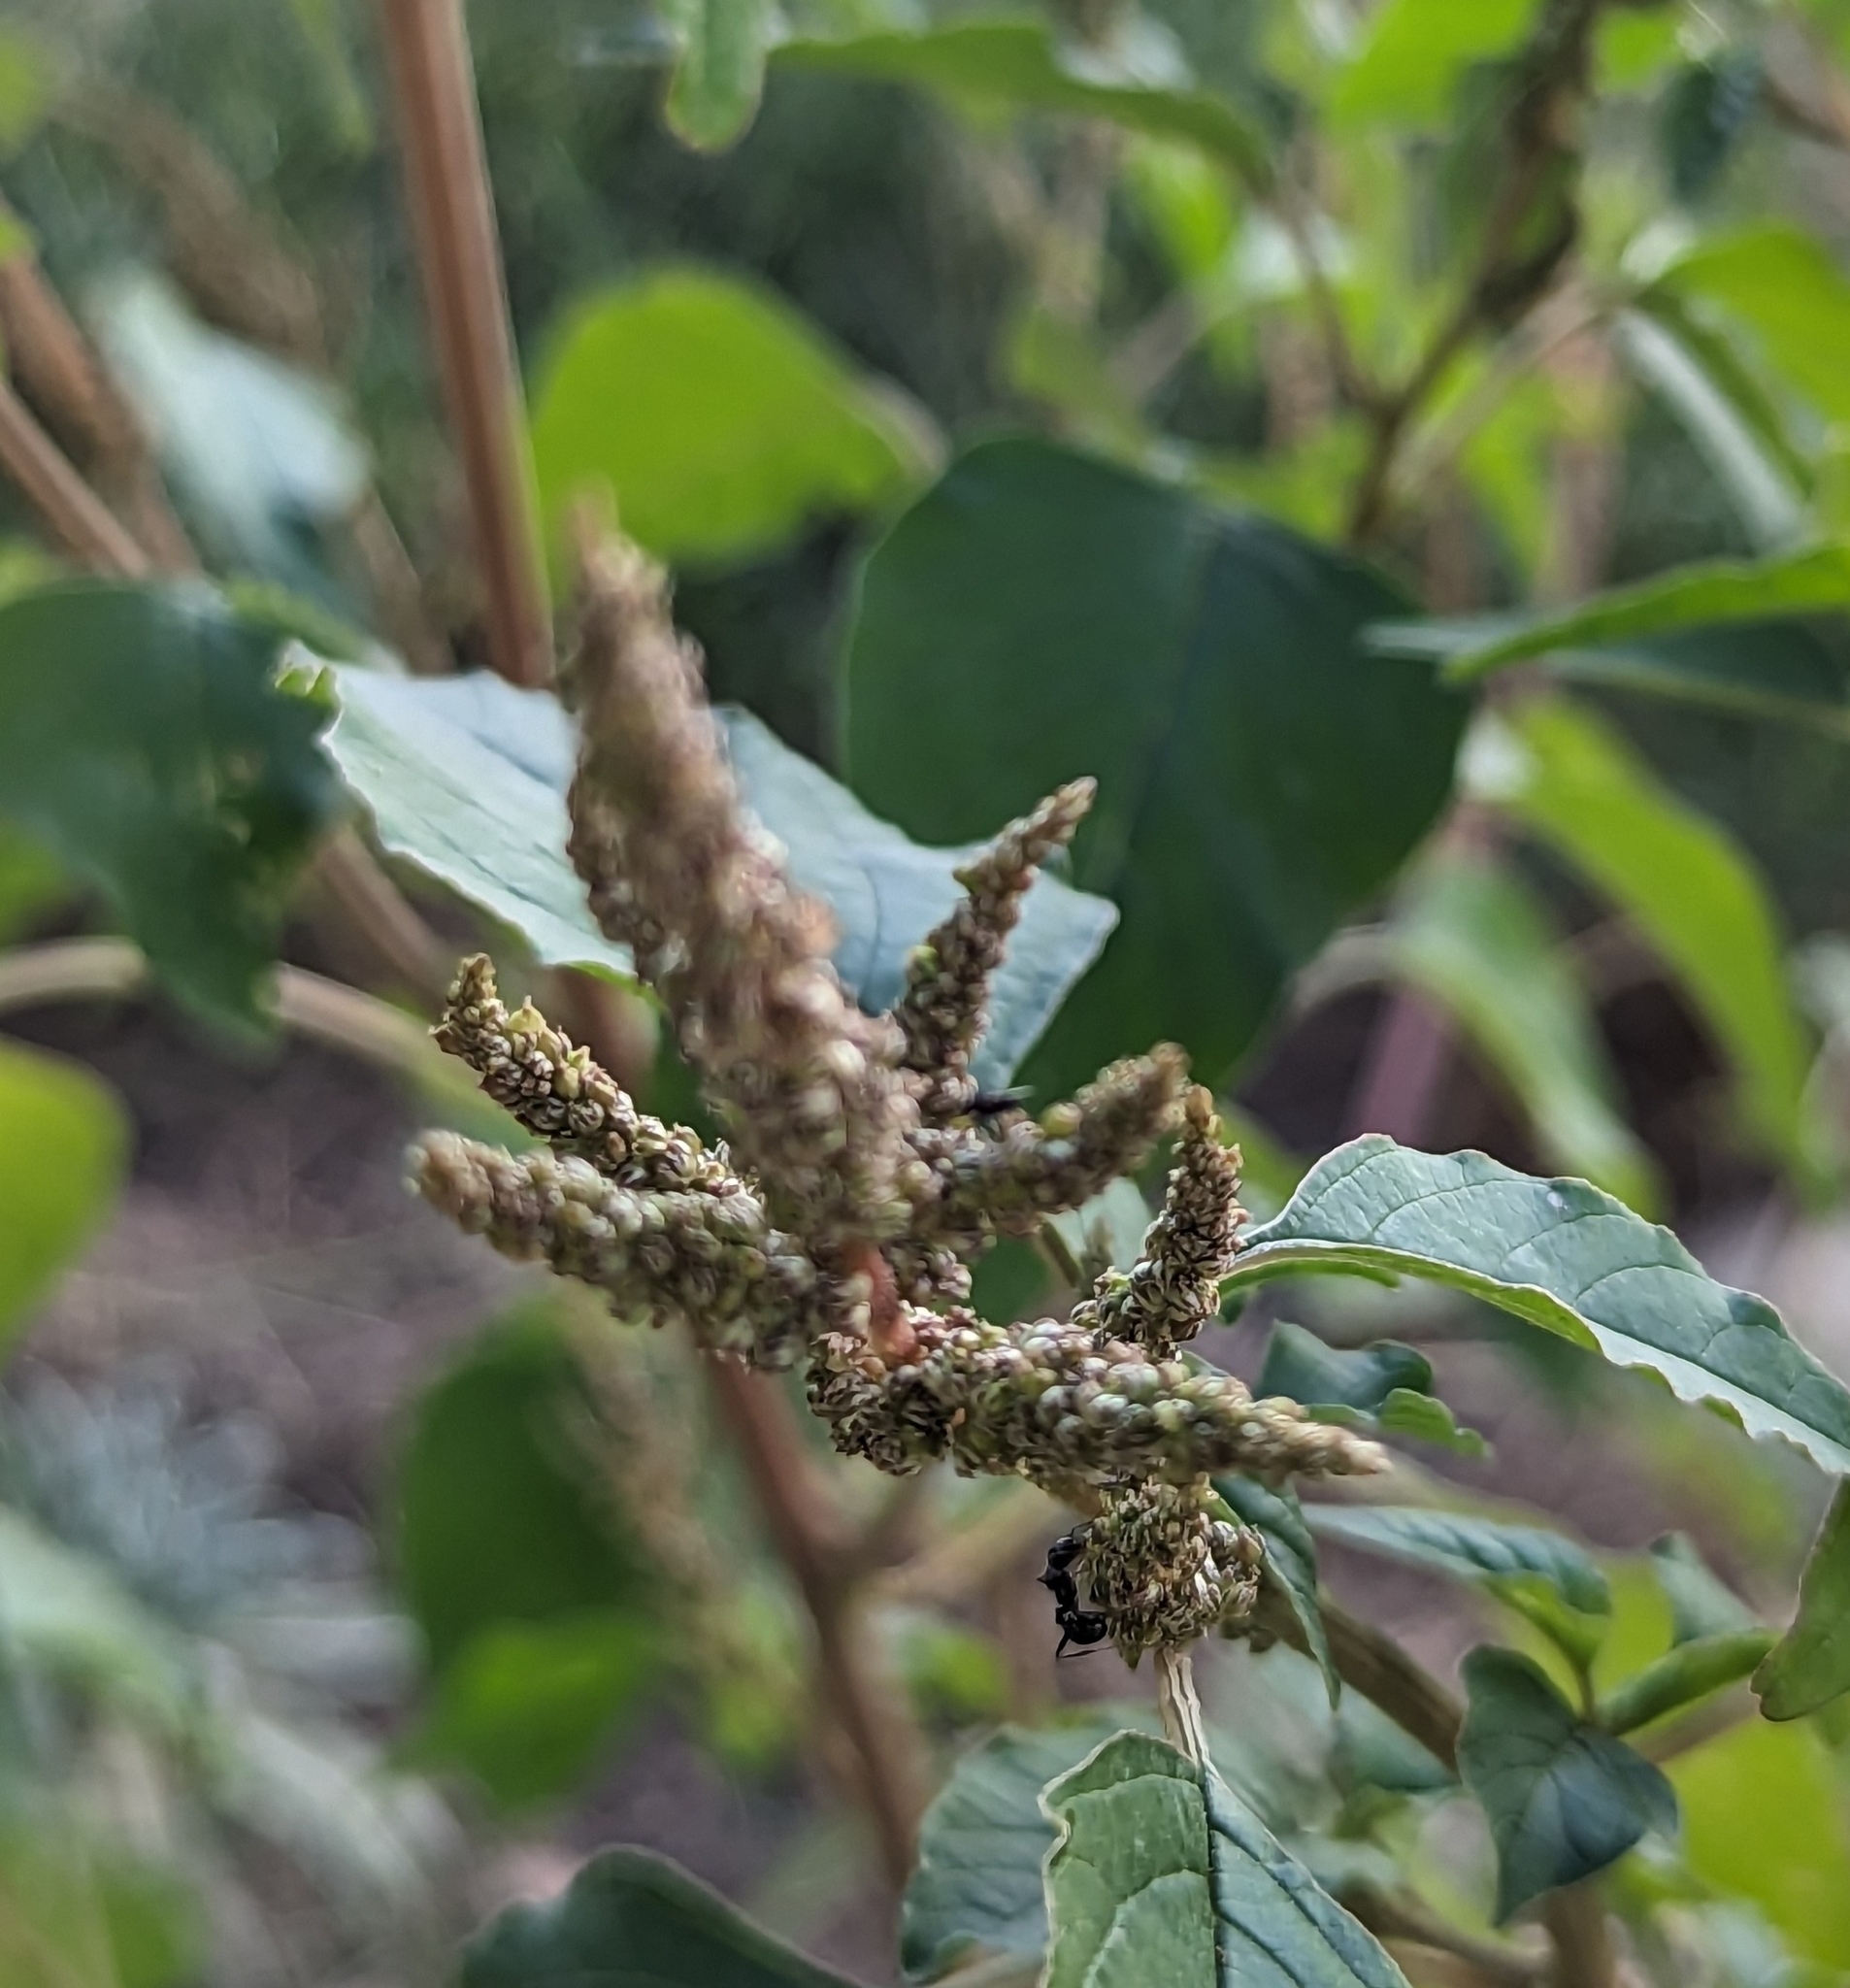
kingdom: Plantae
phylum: Tracheophyta
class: Magnoliopsida
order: Caryophyllales
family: Amaranthaceae
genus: Amaranthus
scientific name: Amaranthus viridis
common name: Slender amaranth
